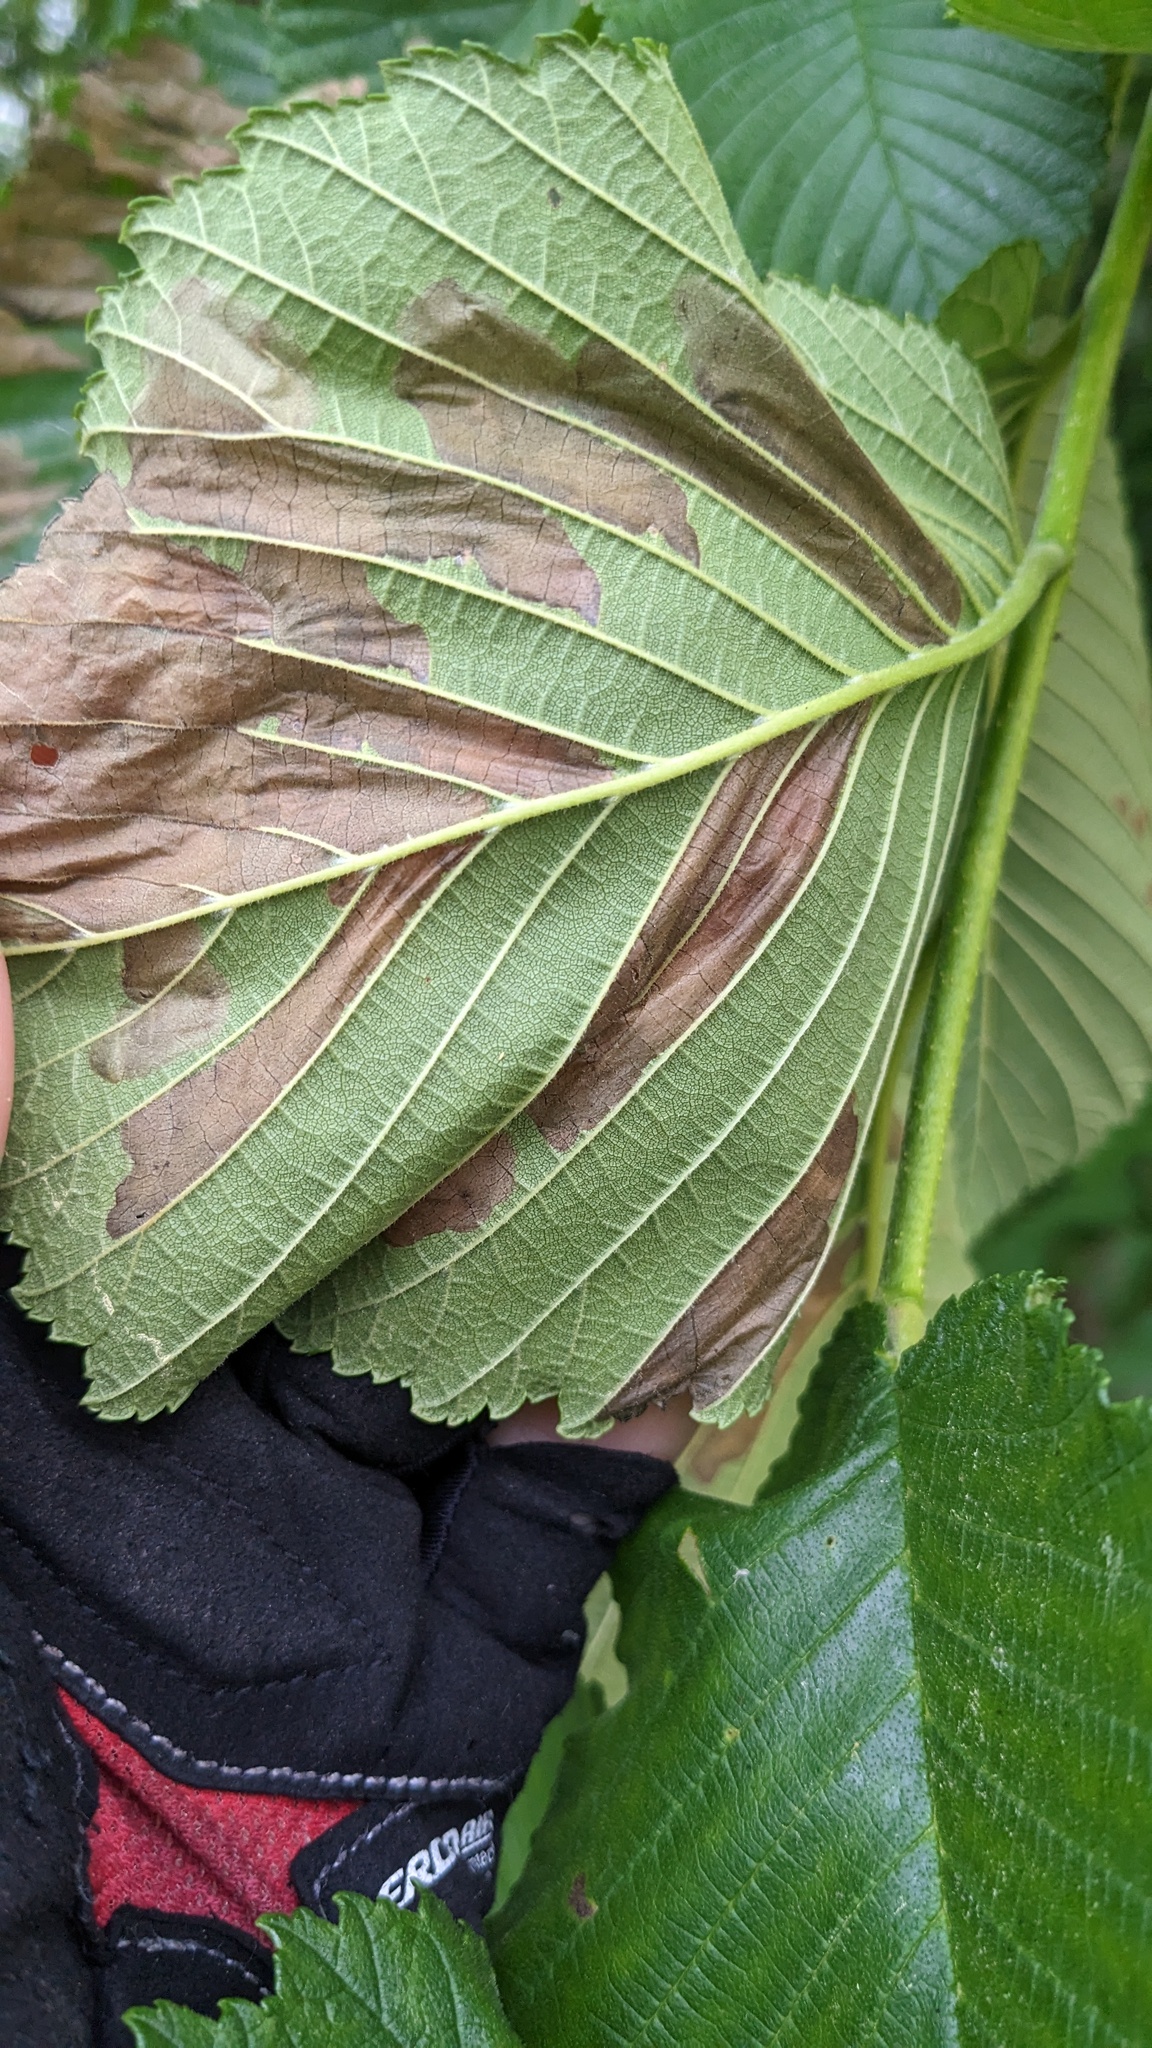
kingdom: Animalia
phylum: Arthropoda
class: Insecta
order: Hymenoptera
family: Tenthredinidae
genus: Fenusa
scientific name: Fenusa ulmi
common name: Elm leafminer
